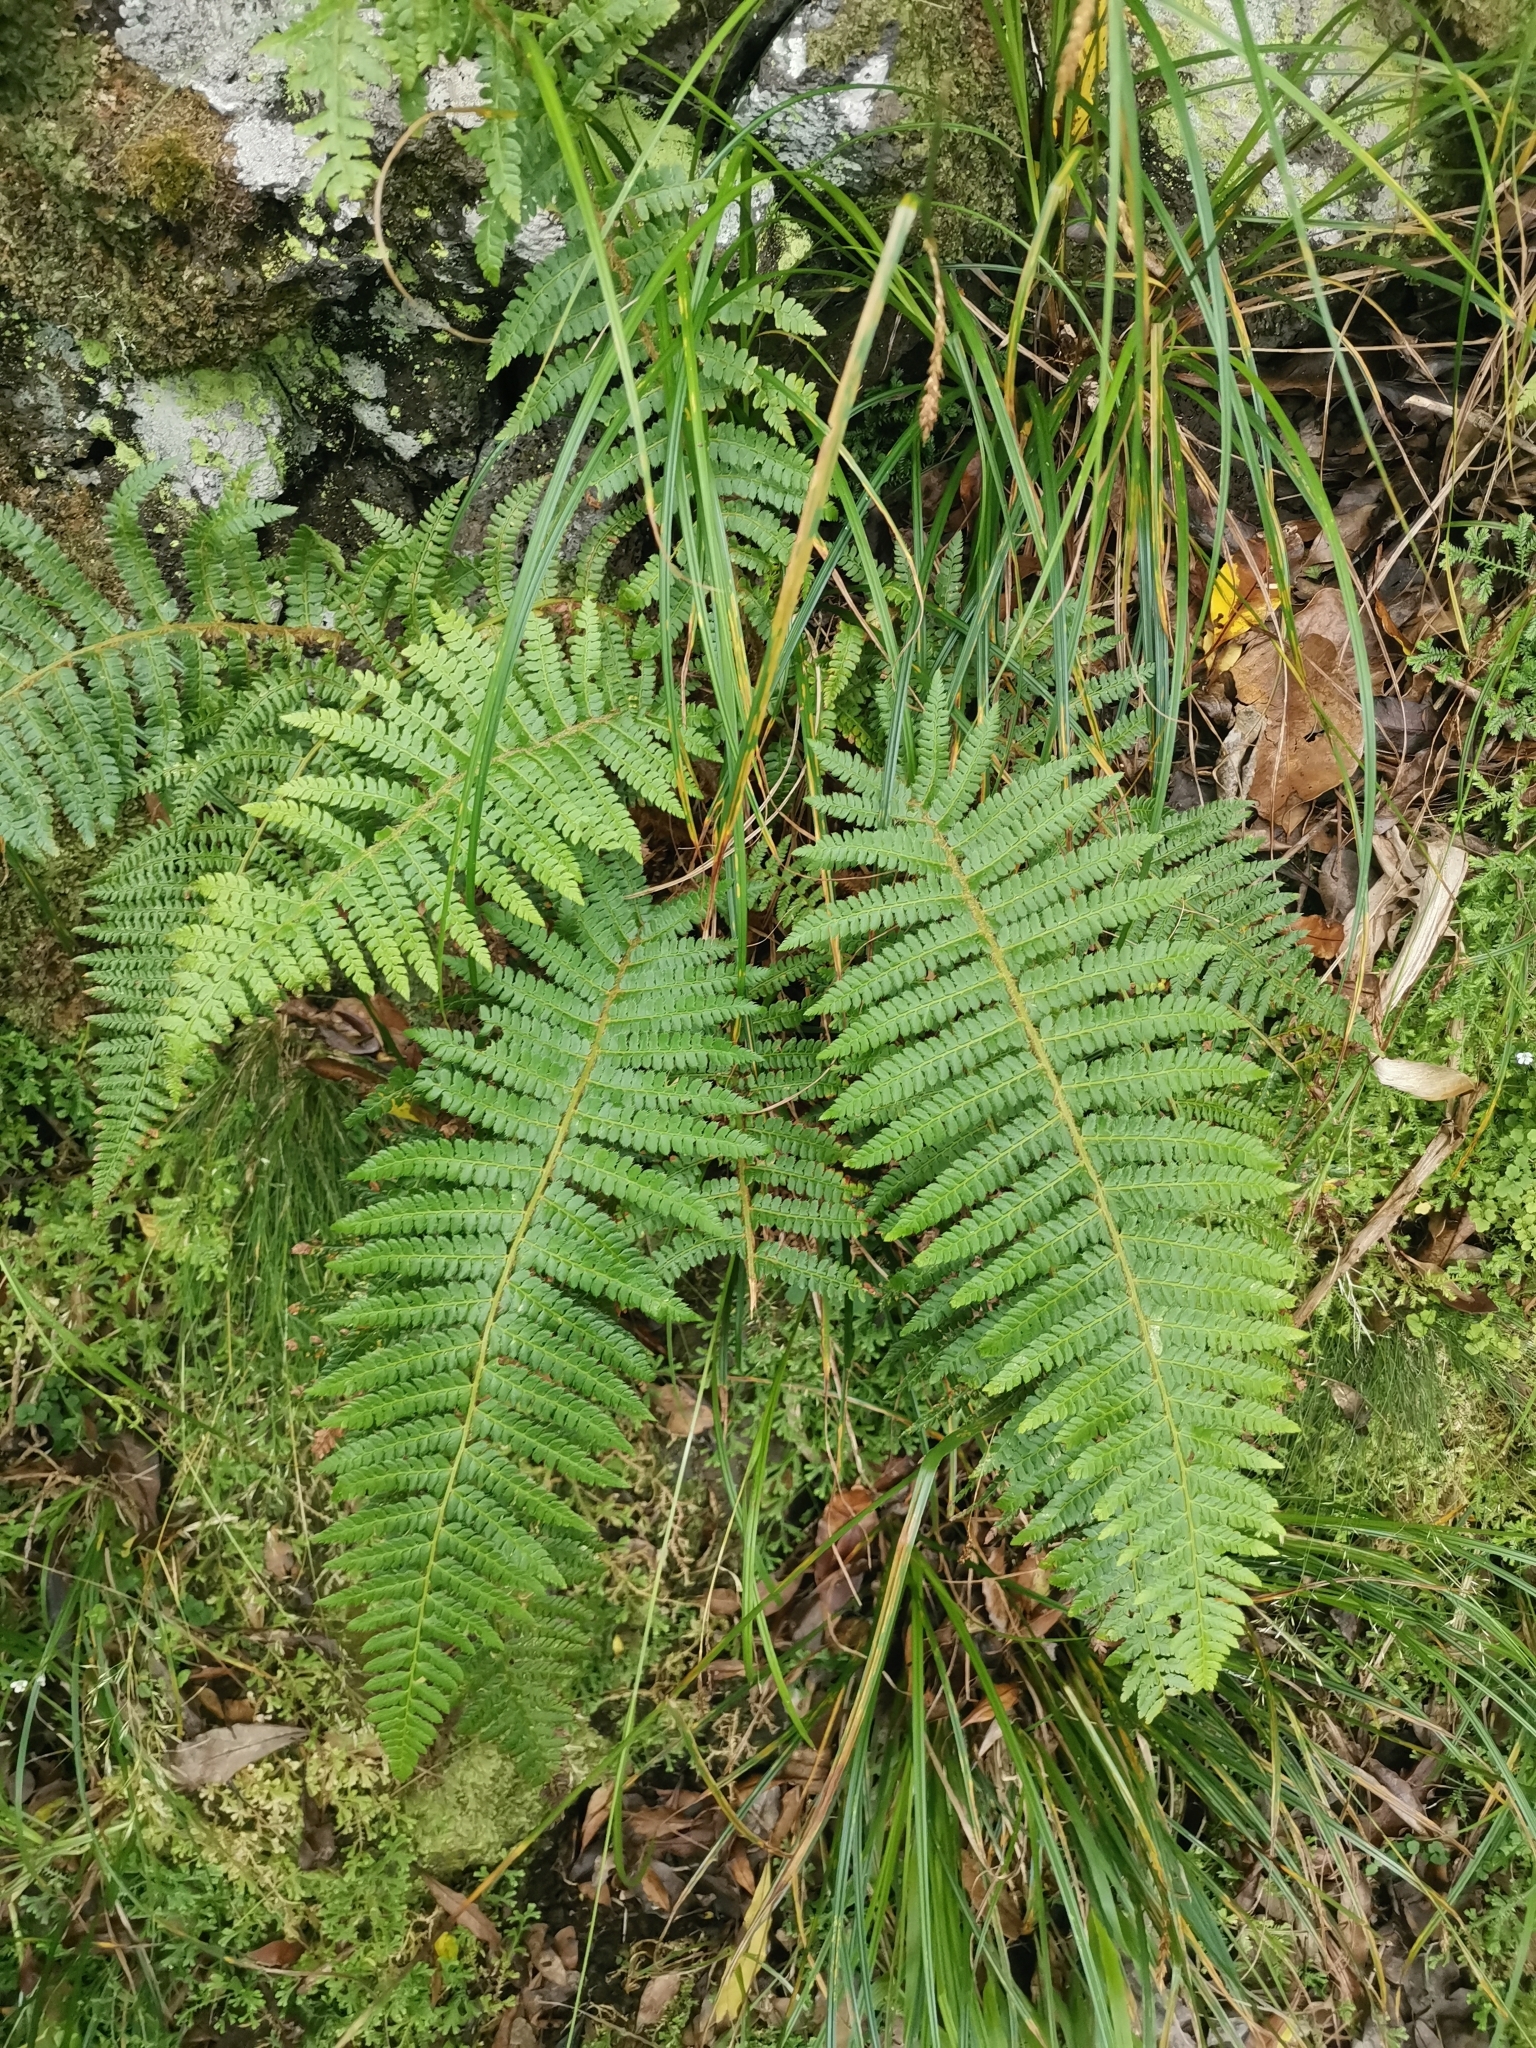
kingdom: Plantae
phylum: Tracheophyta
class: Polypodiopsida
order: Polypodiales
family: Dryopteridaceae
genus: Polystichum
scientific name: Polystichum setiferum
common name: Soft shield-fern
